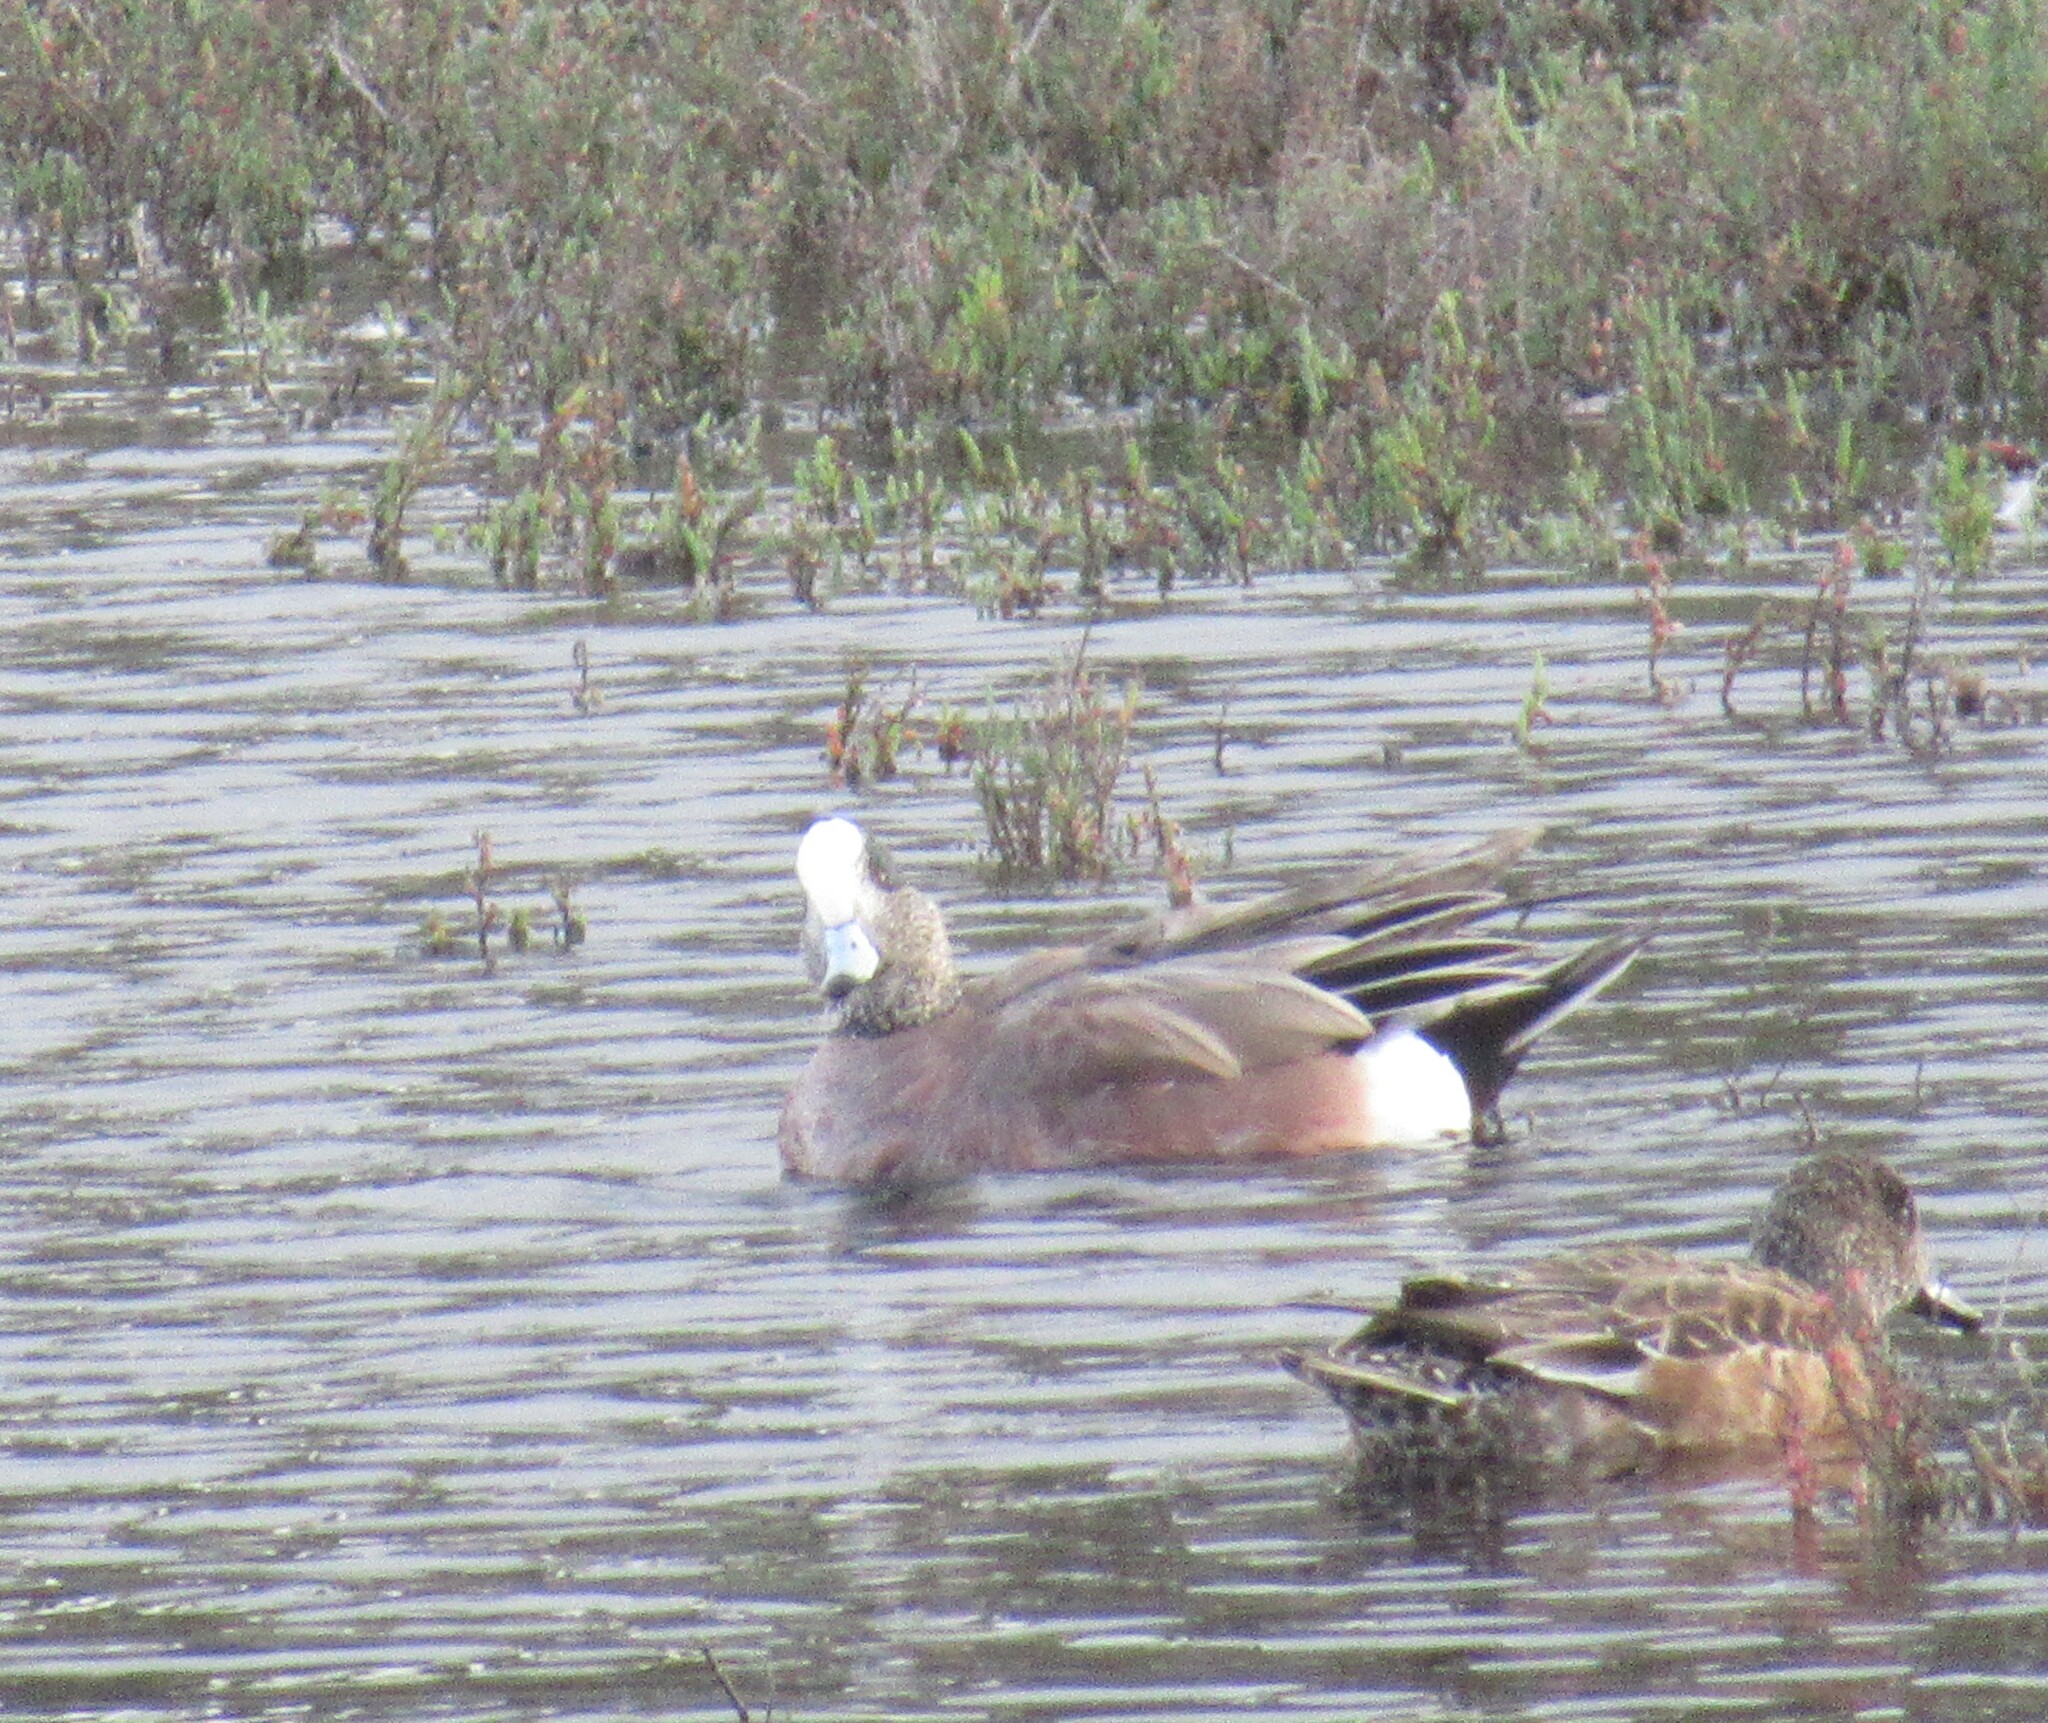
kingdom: Animalia
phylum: Chordata
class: Aves
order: Anseriformes
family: Anatidae
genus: Mareca
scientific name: Mareca americana
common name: American wigeon
